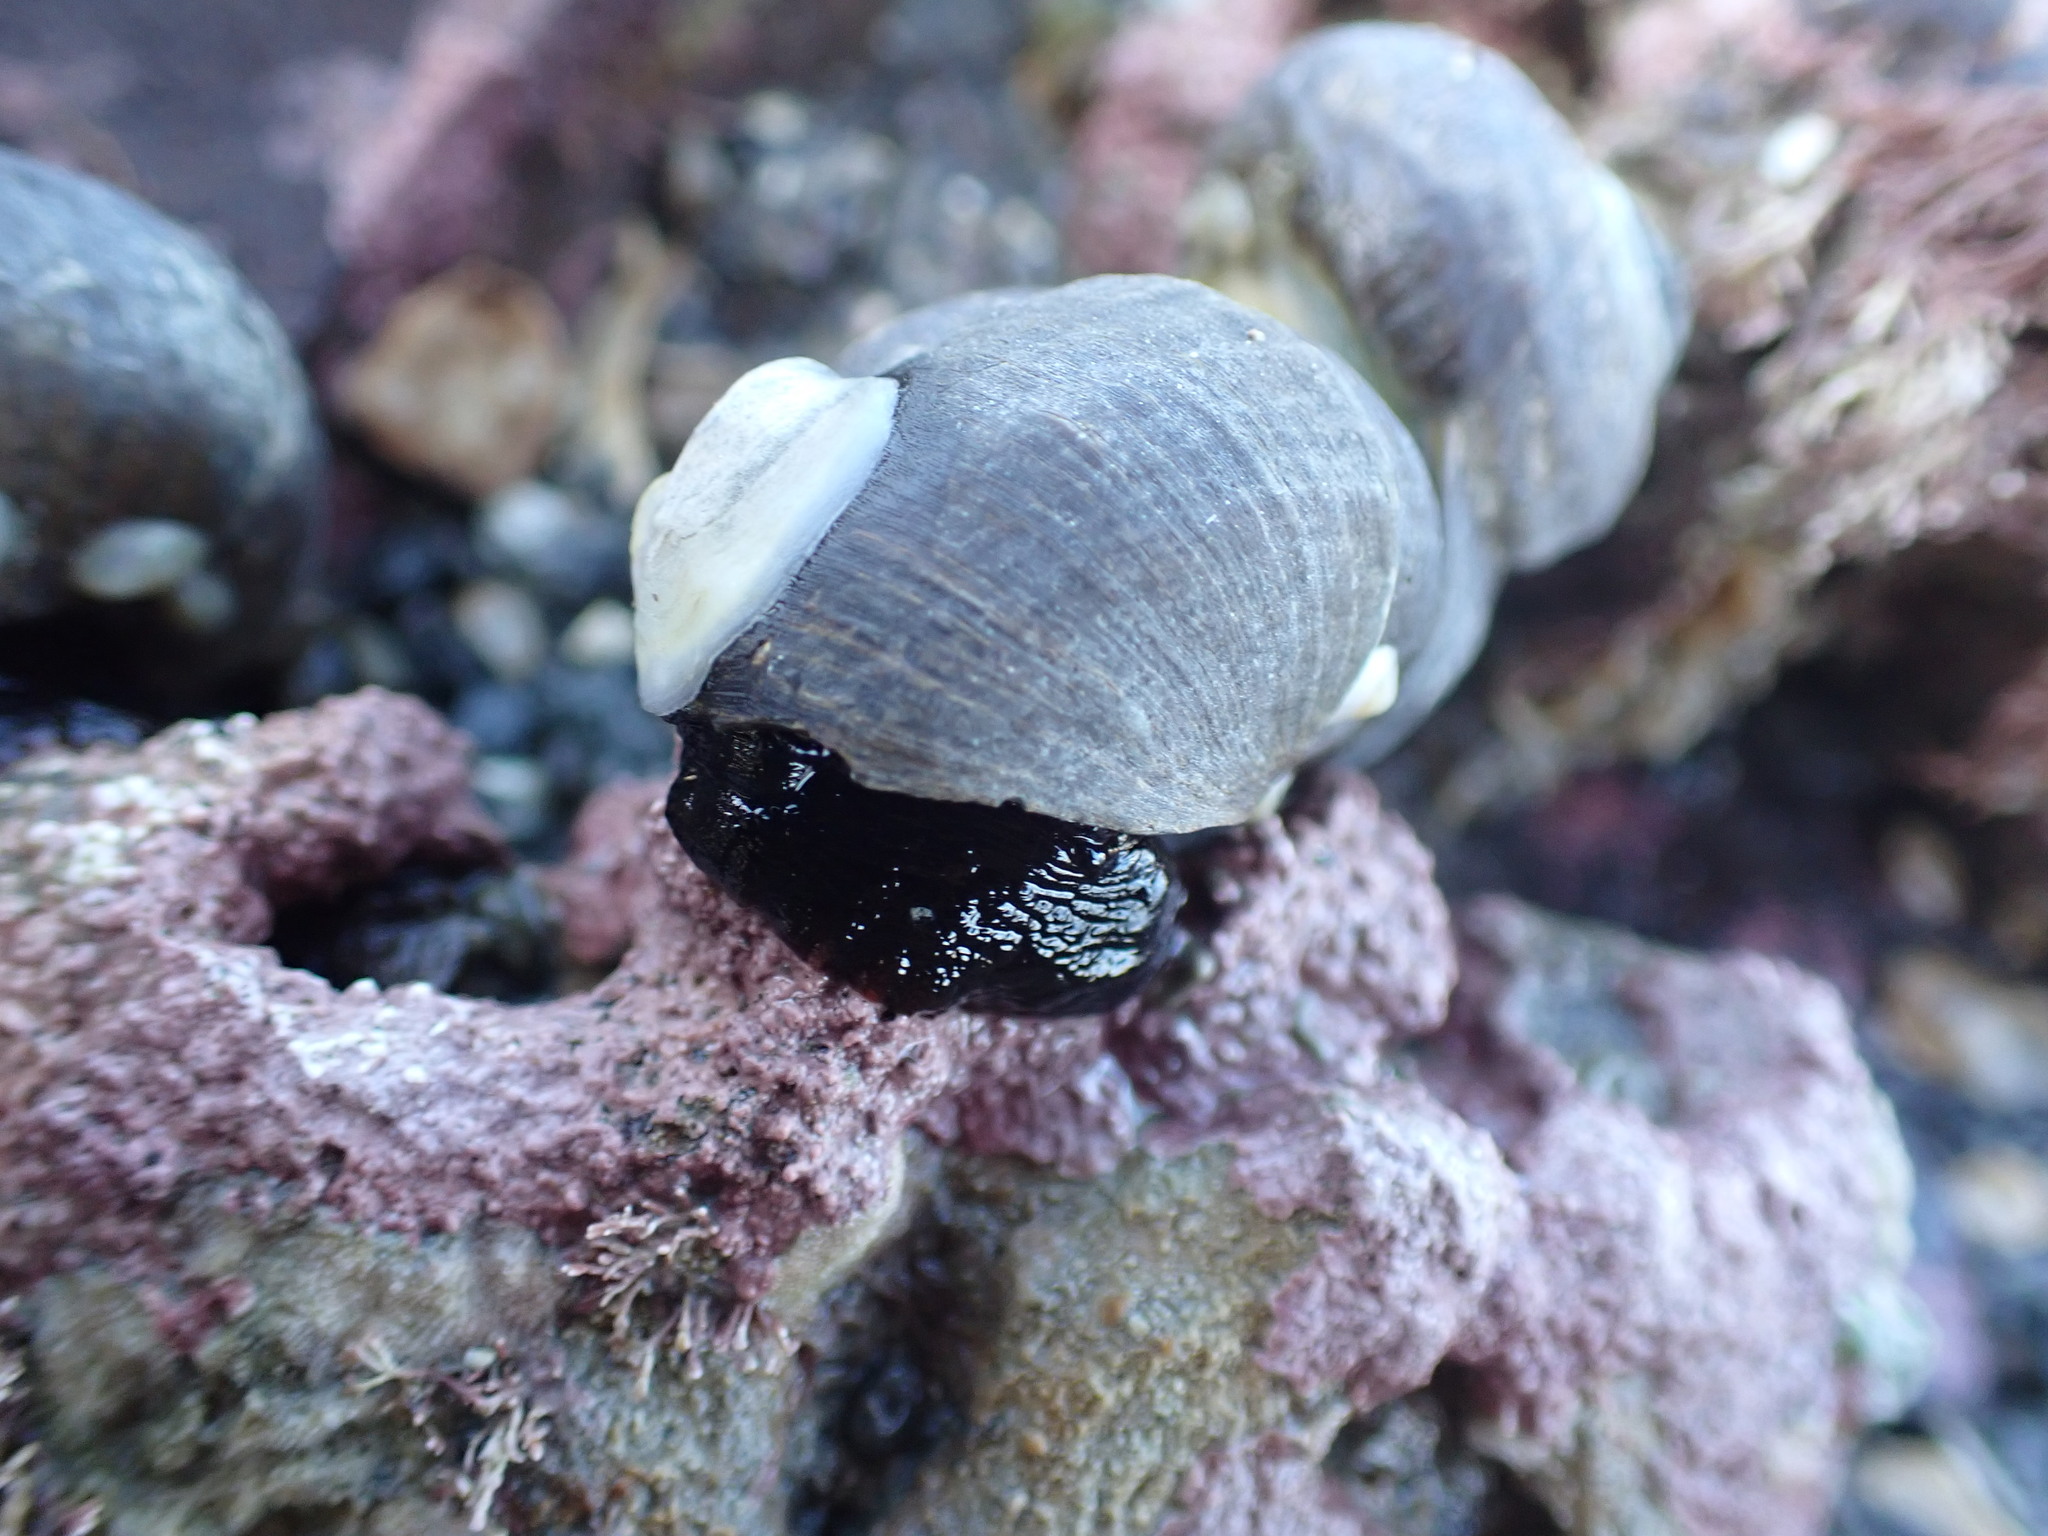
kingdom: Animalia
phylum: Mollusca
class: Gastropoda
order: Littorinimorpha
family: Calyptraeidae
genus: Maoricrypta
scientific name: Maoricrypta monoxyla
